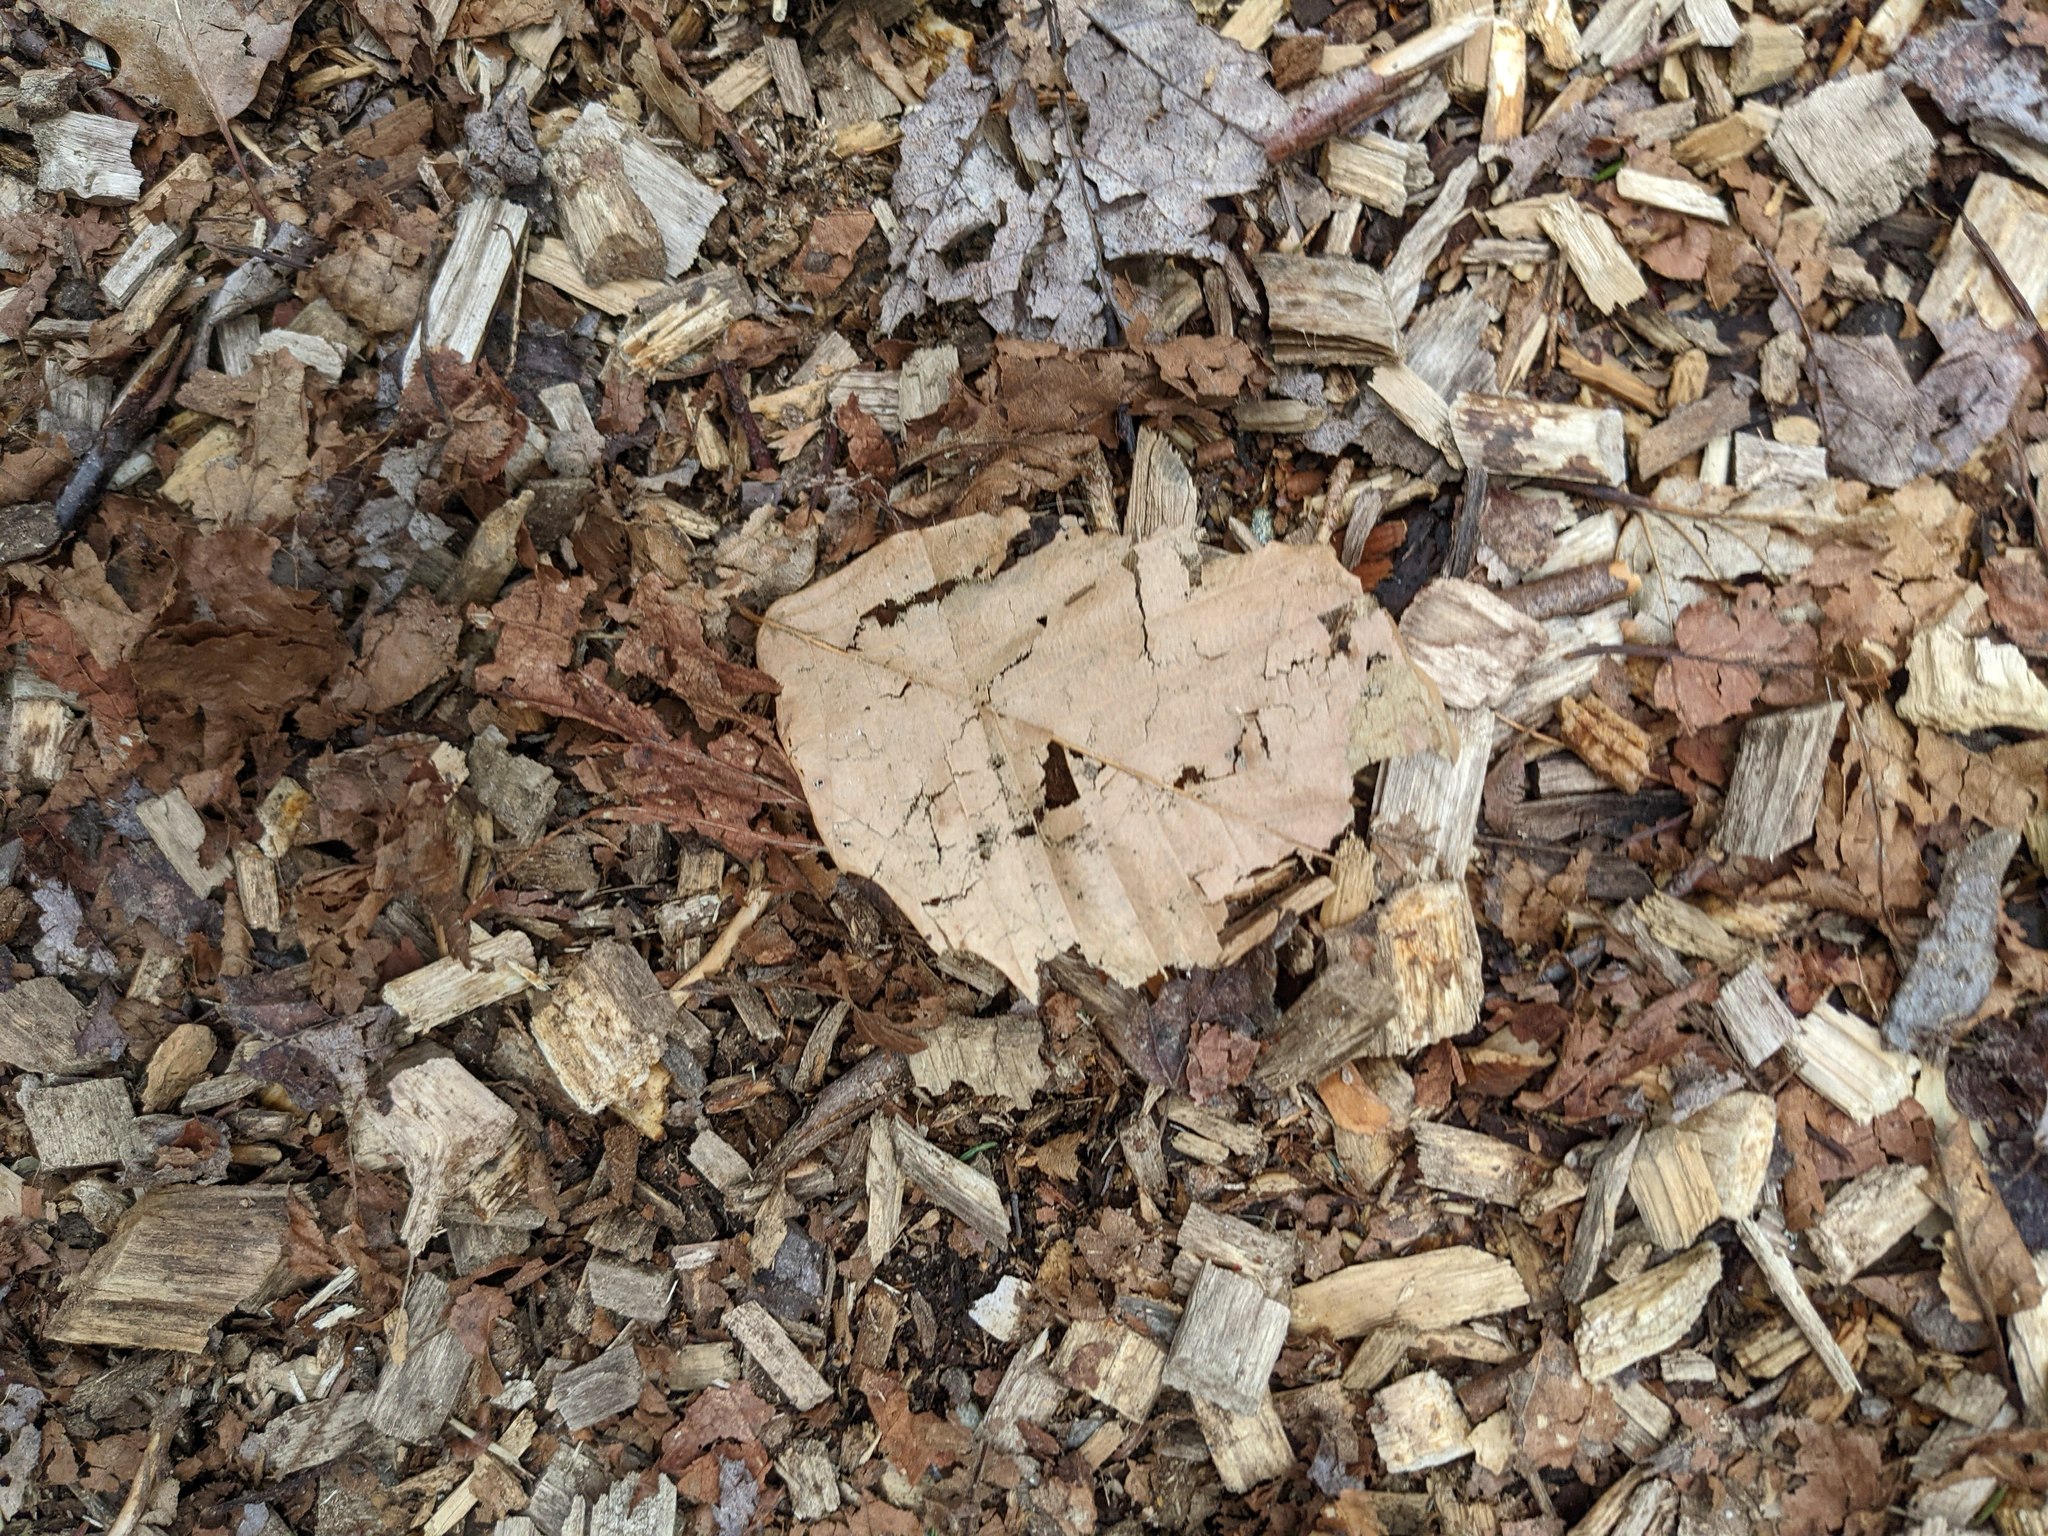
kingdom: Plantae
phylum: Tracheophyta
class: Magnoliopsida
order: Fagales
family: Fagaceae
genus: Fagus
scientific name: Fagus grandifolia
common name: American beech
